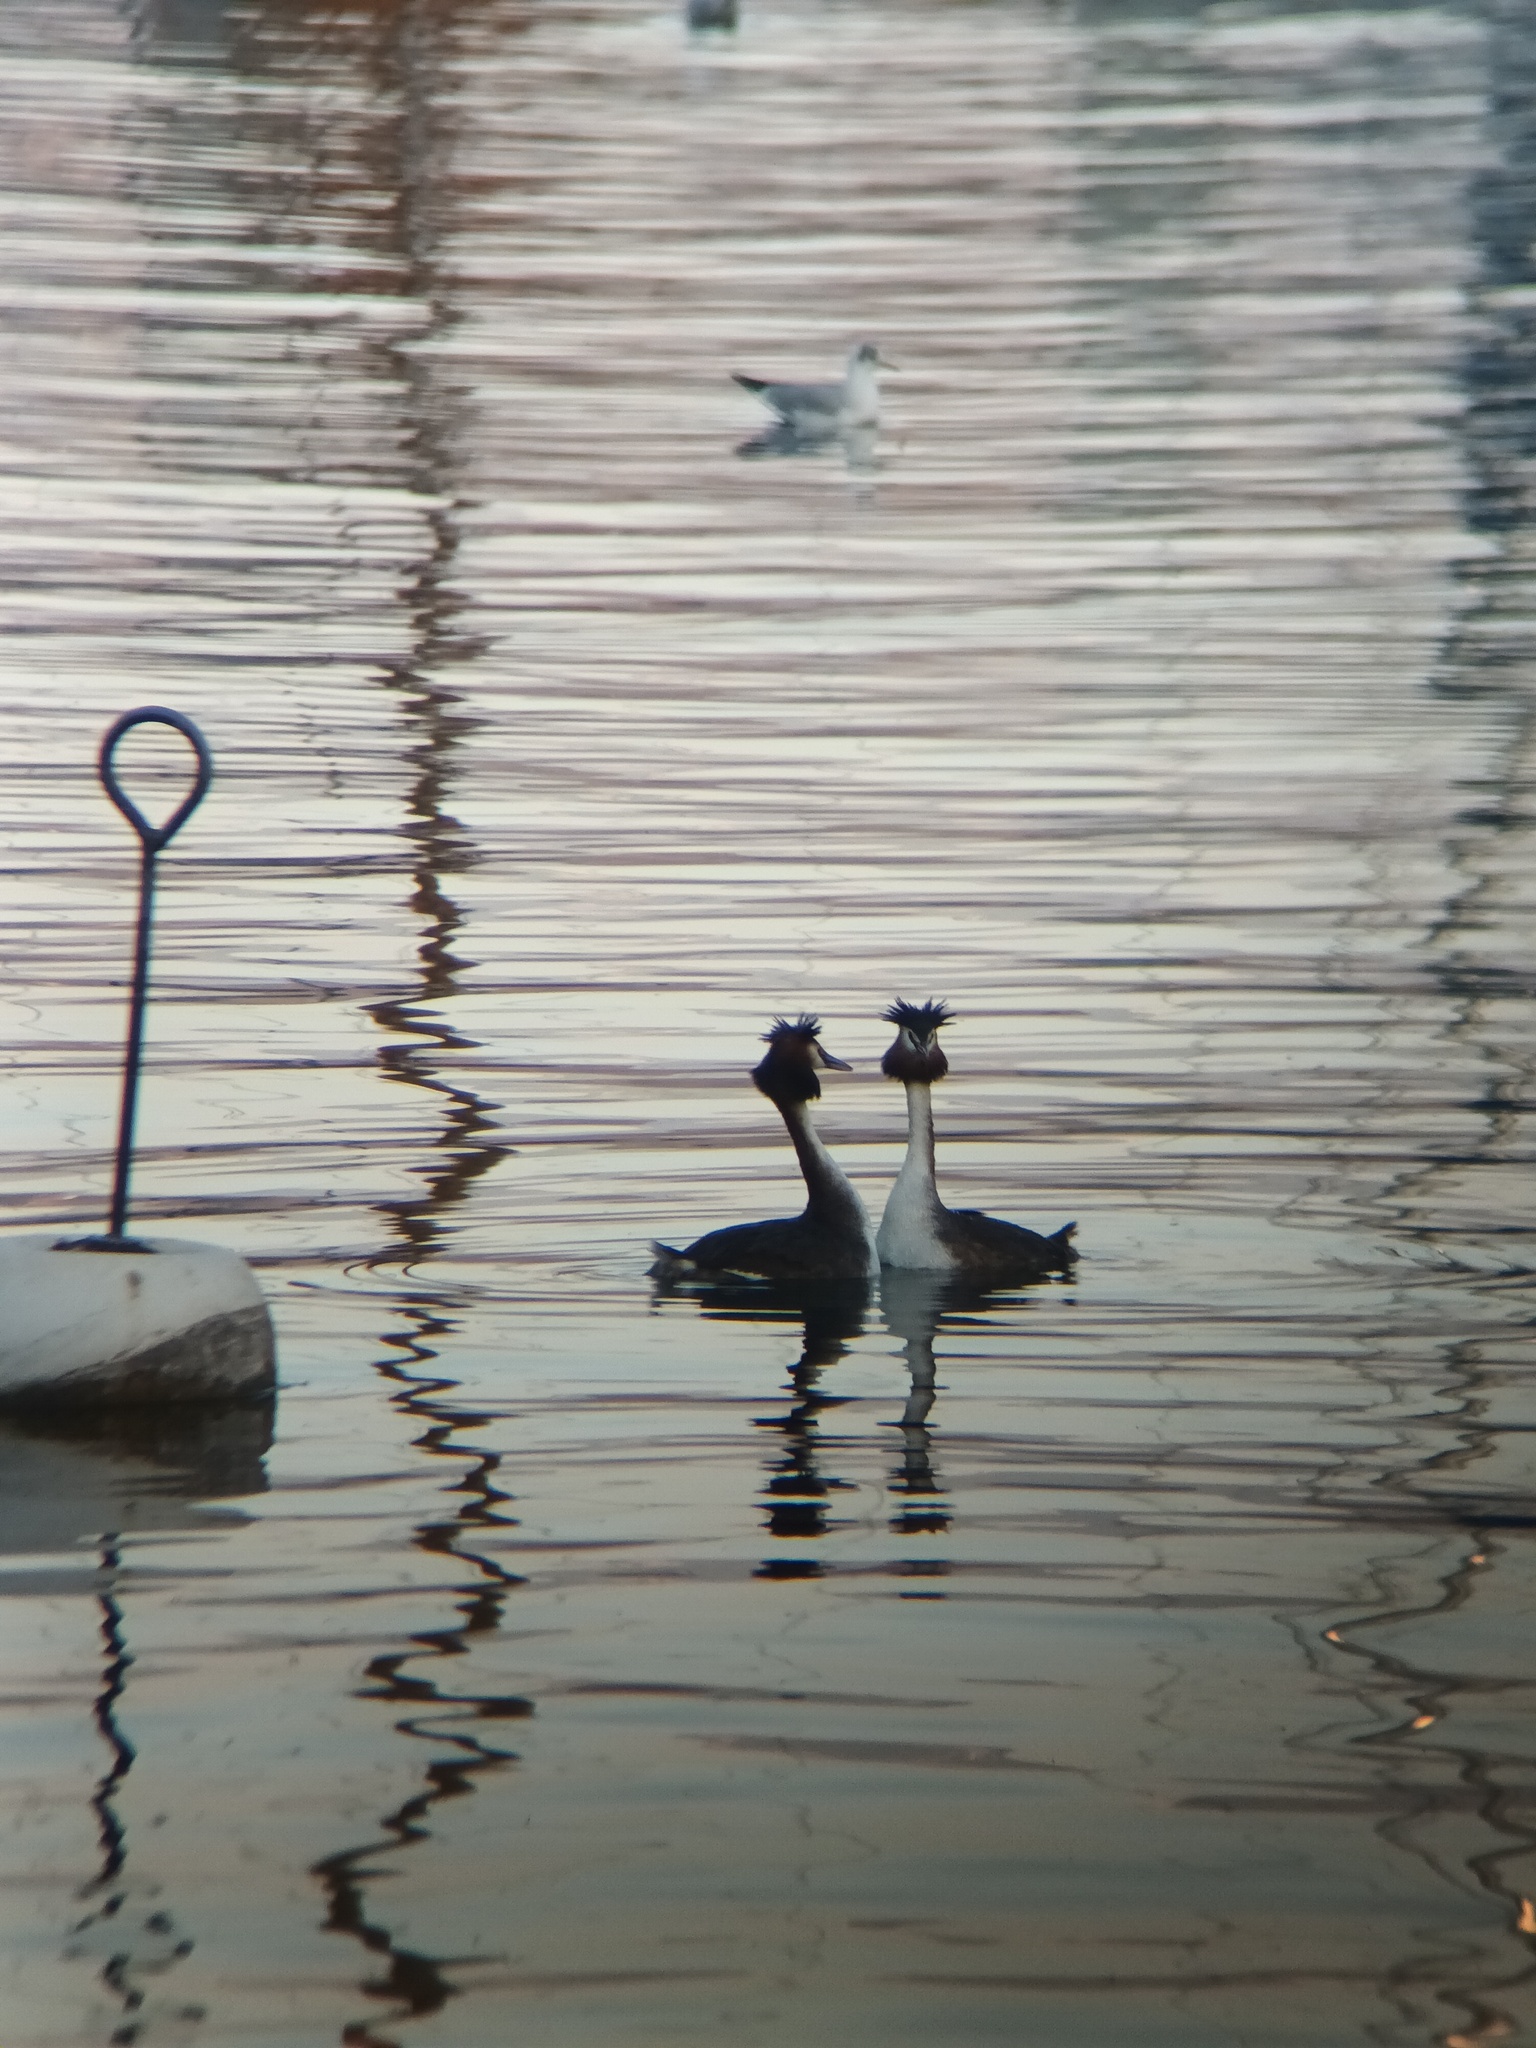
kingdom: Animalia
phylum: Chordata
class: Aves
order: Podicipediformes
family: Podicipedidae
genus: Podiceps
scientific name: Podiceps cristatus
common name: Great crested grebe
